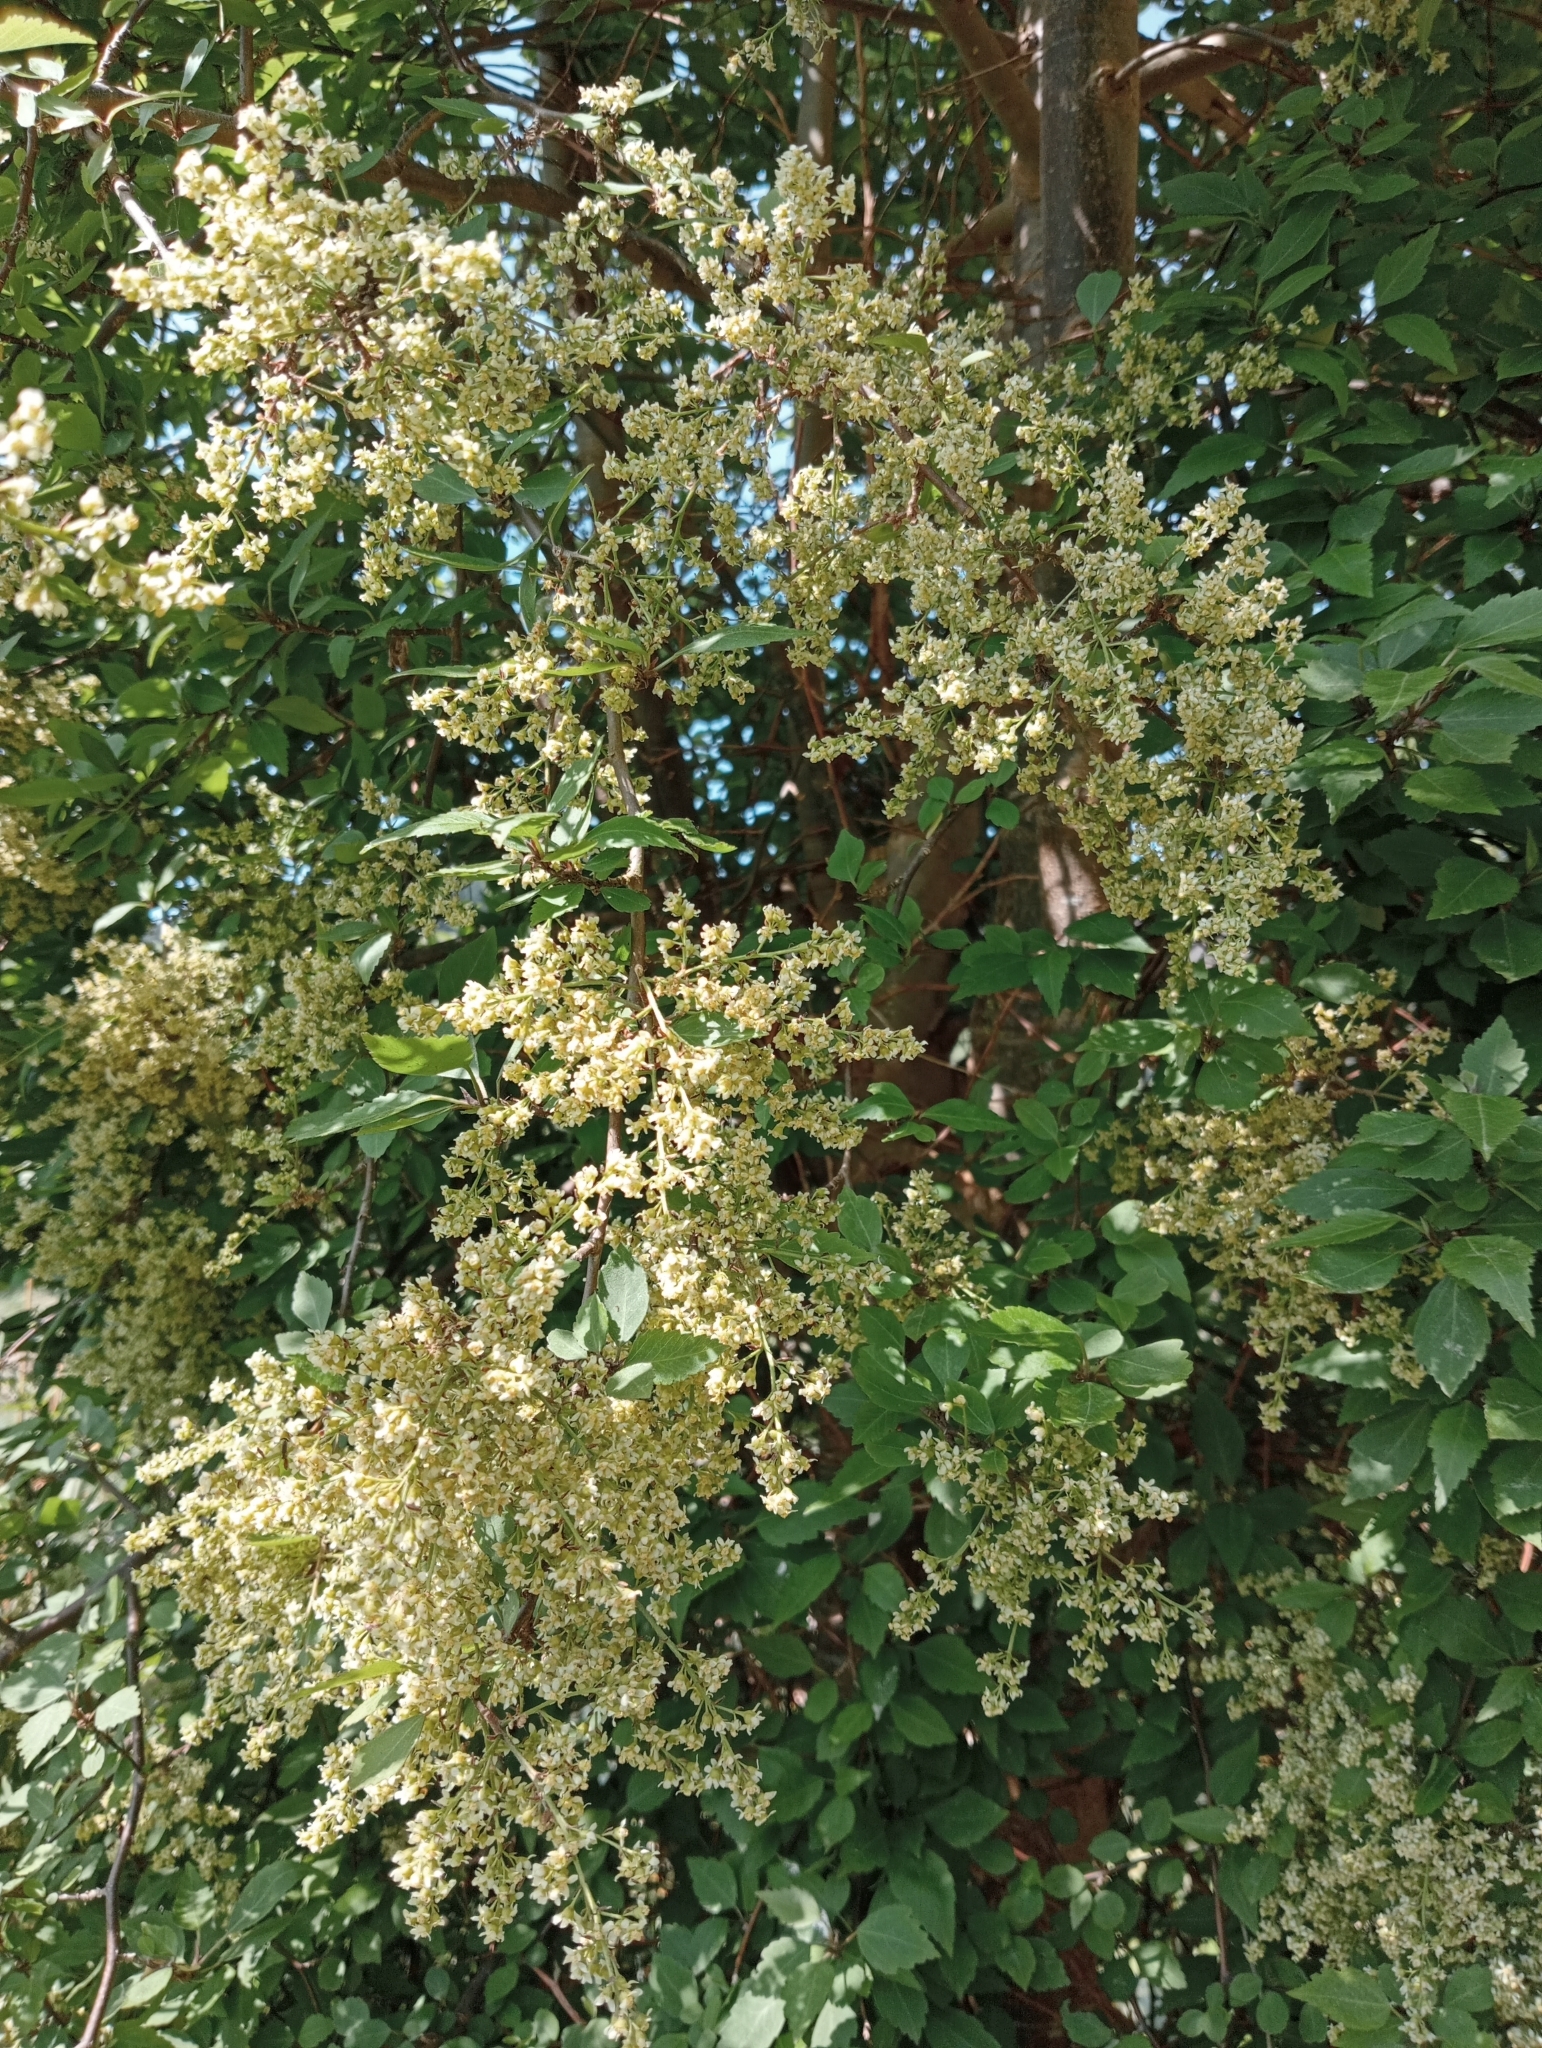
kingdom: Plantae
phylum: Tracheophyta
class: Magnoliopsida
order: Malvales
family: Malvaceae
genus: Plagianthus
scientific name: Plagianthus regius
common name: Manatu
